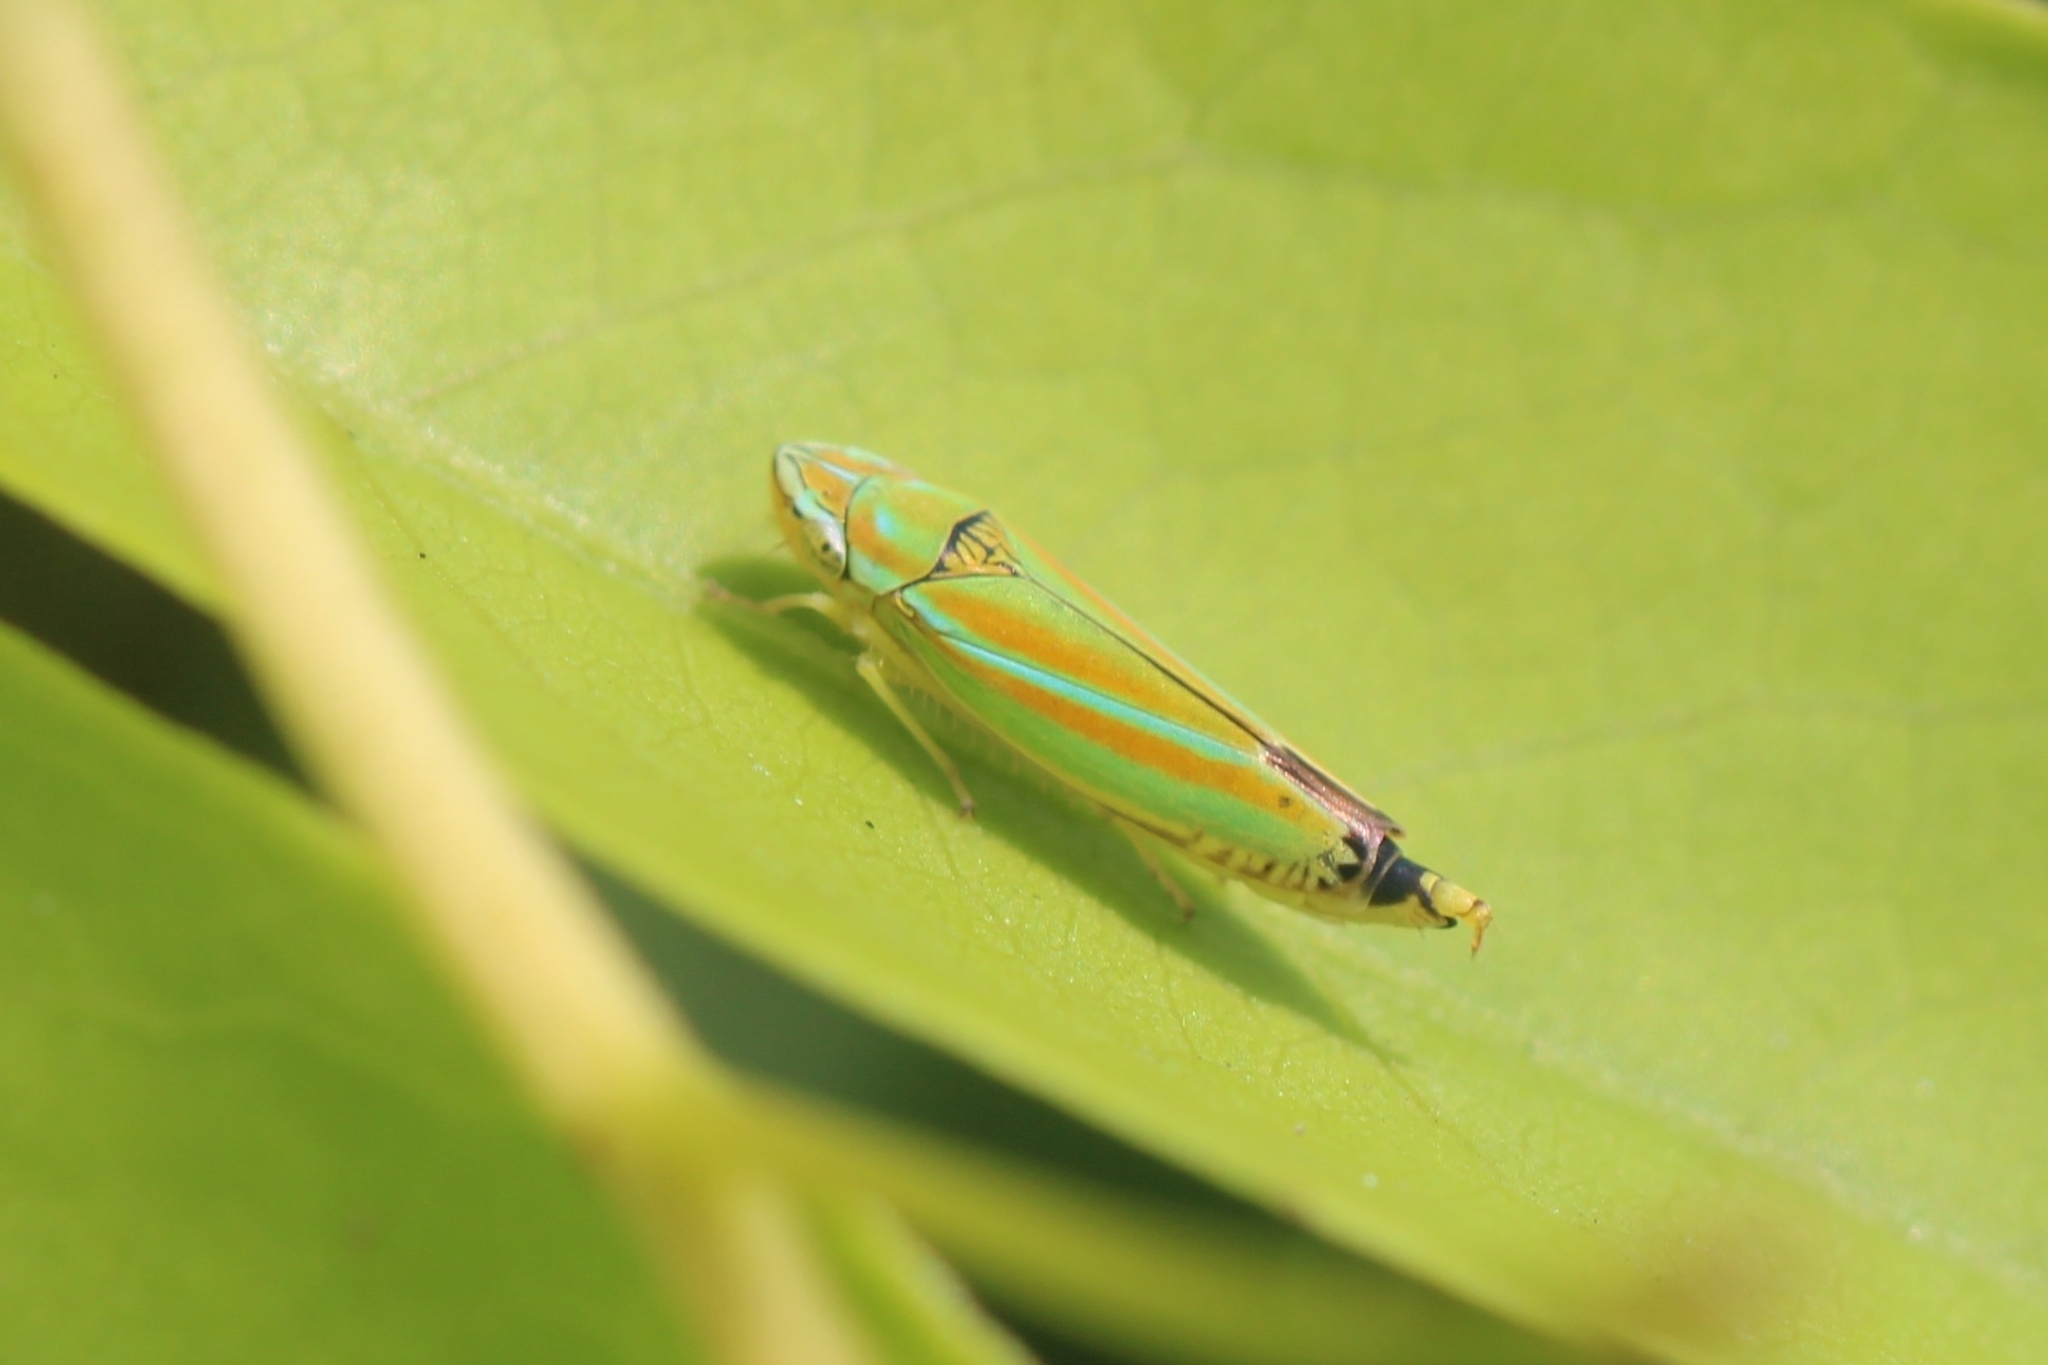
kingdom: Animalia
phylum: Arthropoda
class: Insecta
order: Hemiptera
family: Cicadellidae
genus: Graphocephala
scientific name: Graphocephala versuta
